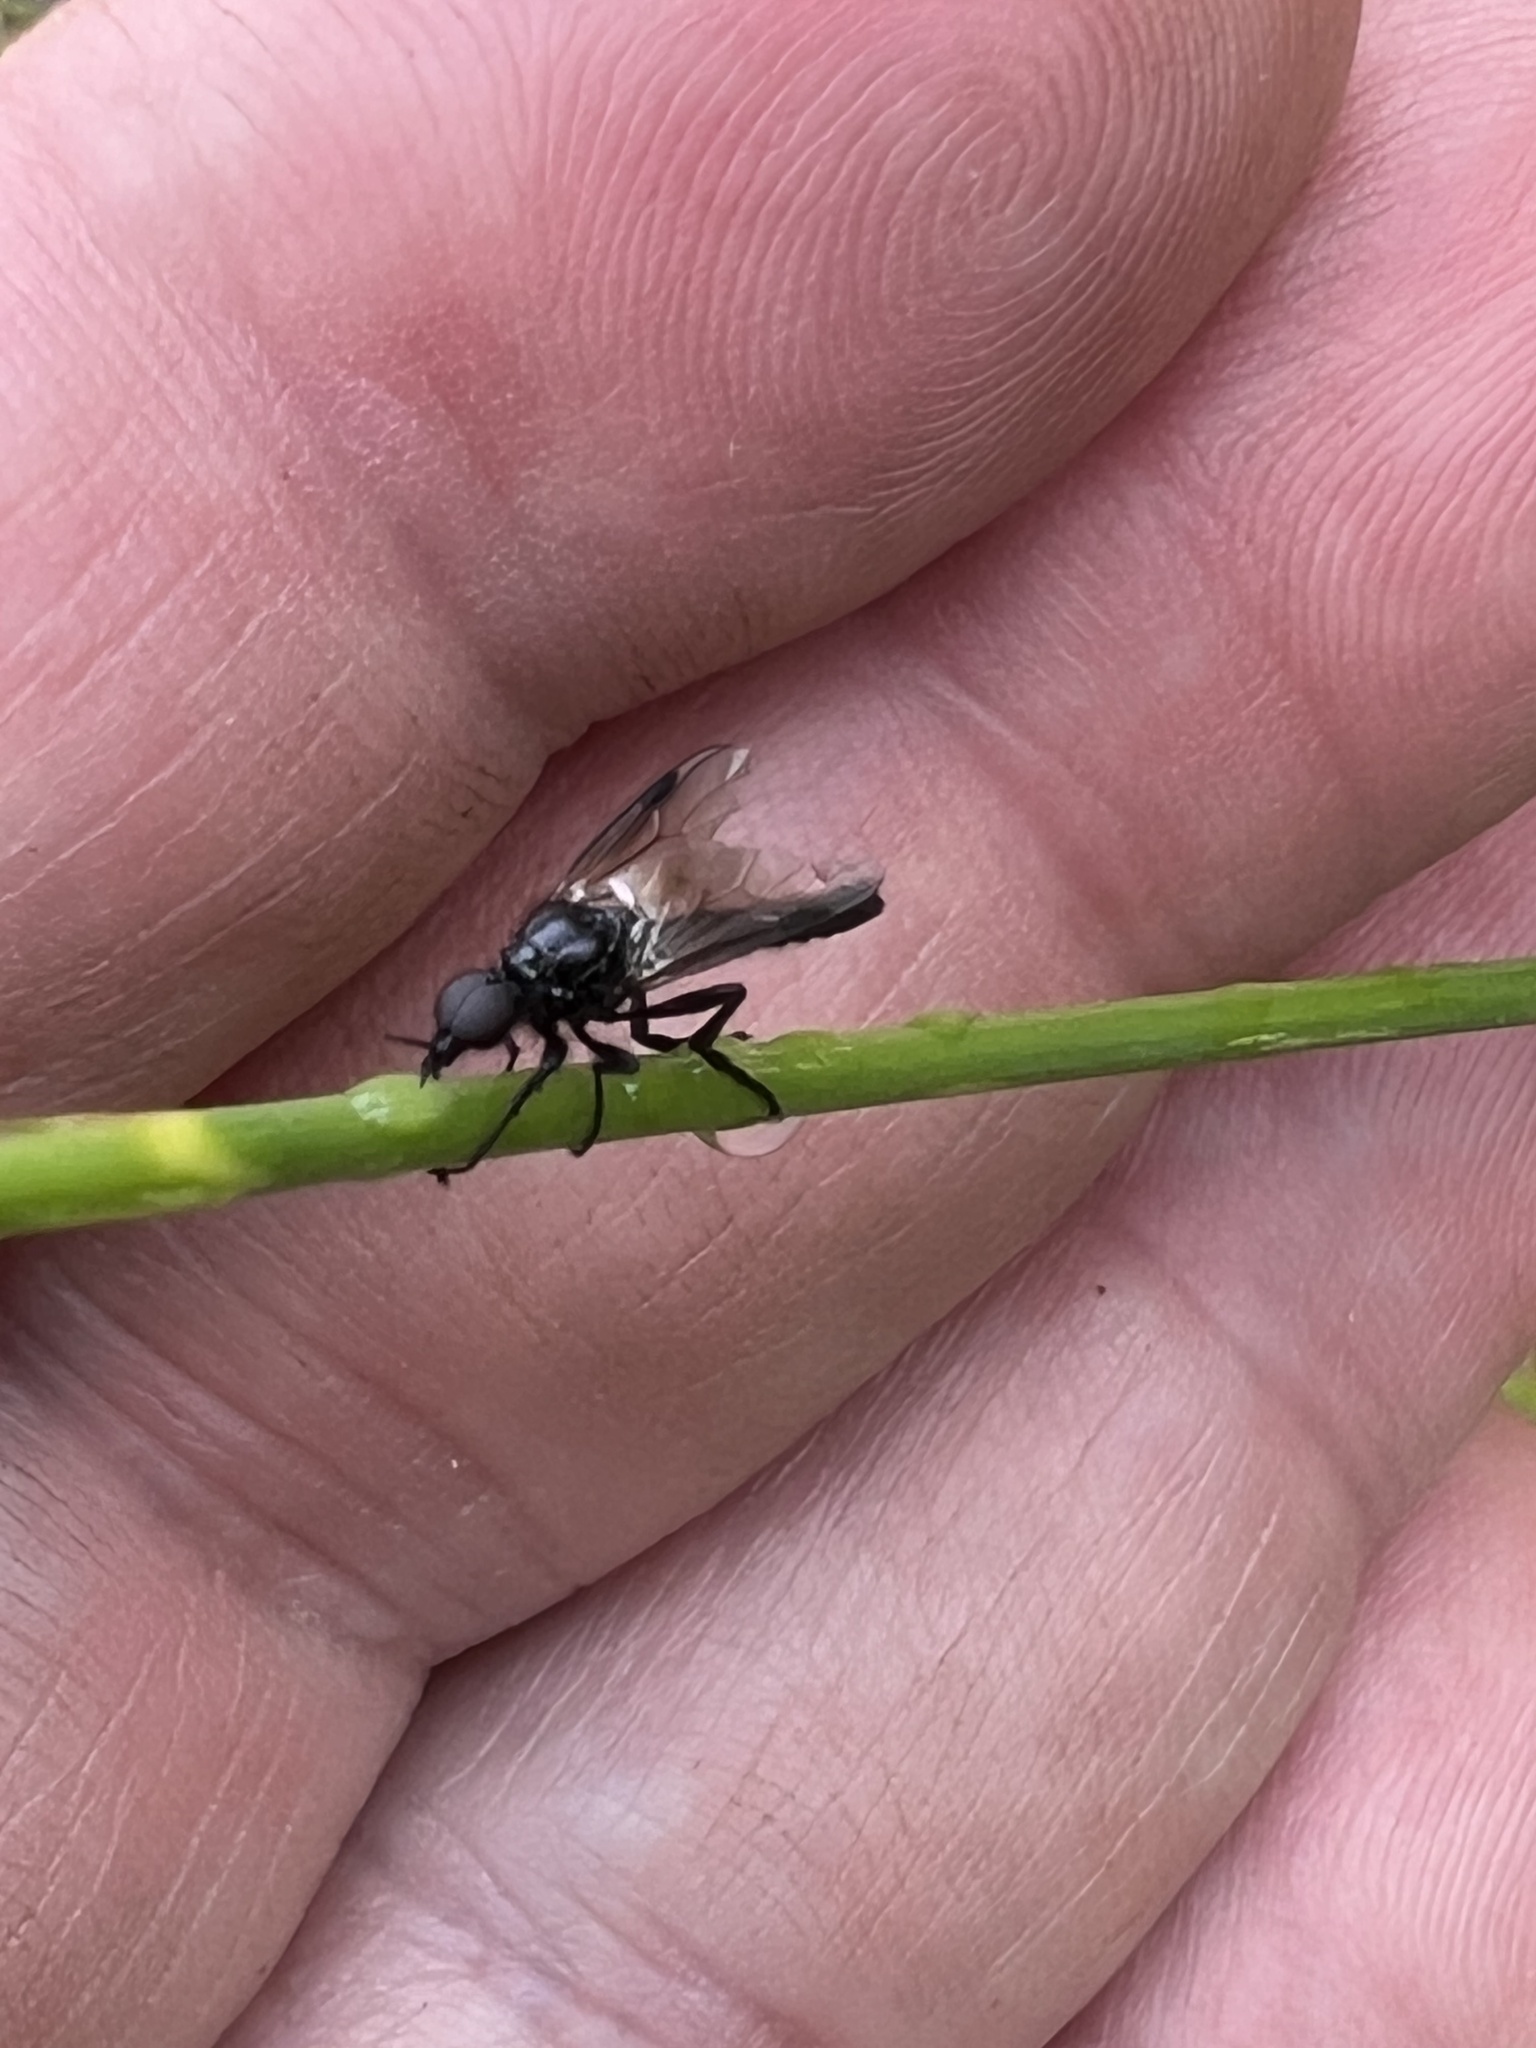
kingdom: Animalia
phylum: Arthropoda
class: Insecta
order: Diptera
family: Bibionidae
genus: Dilophus
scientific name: Dilophus nigrostigma
